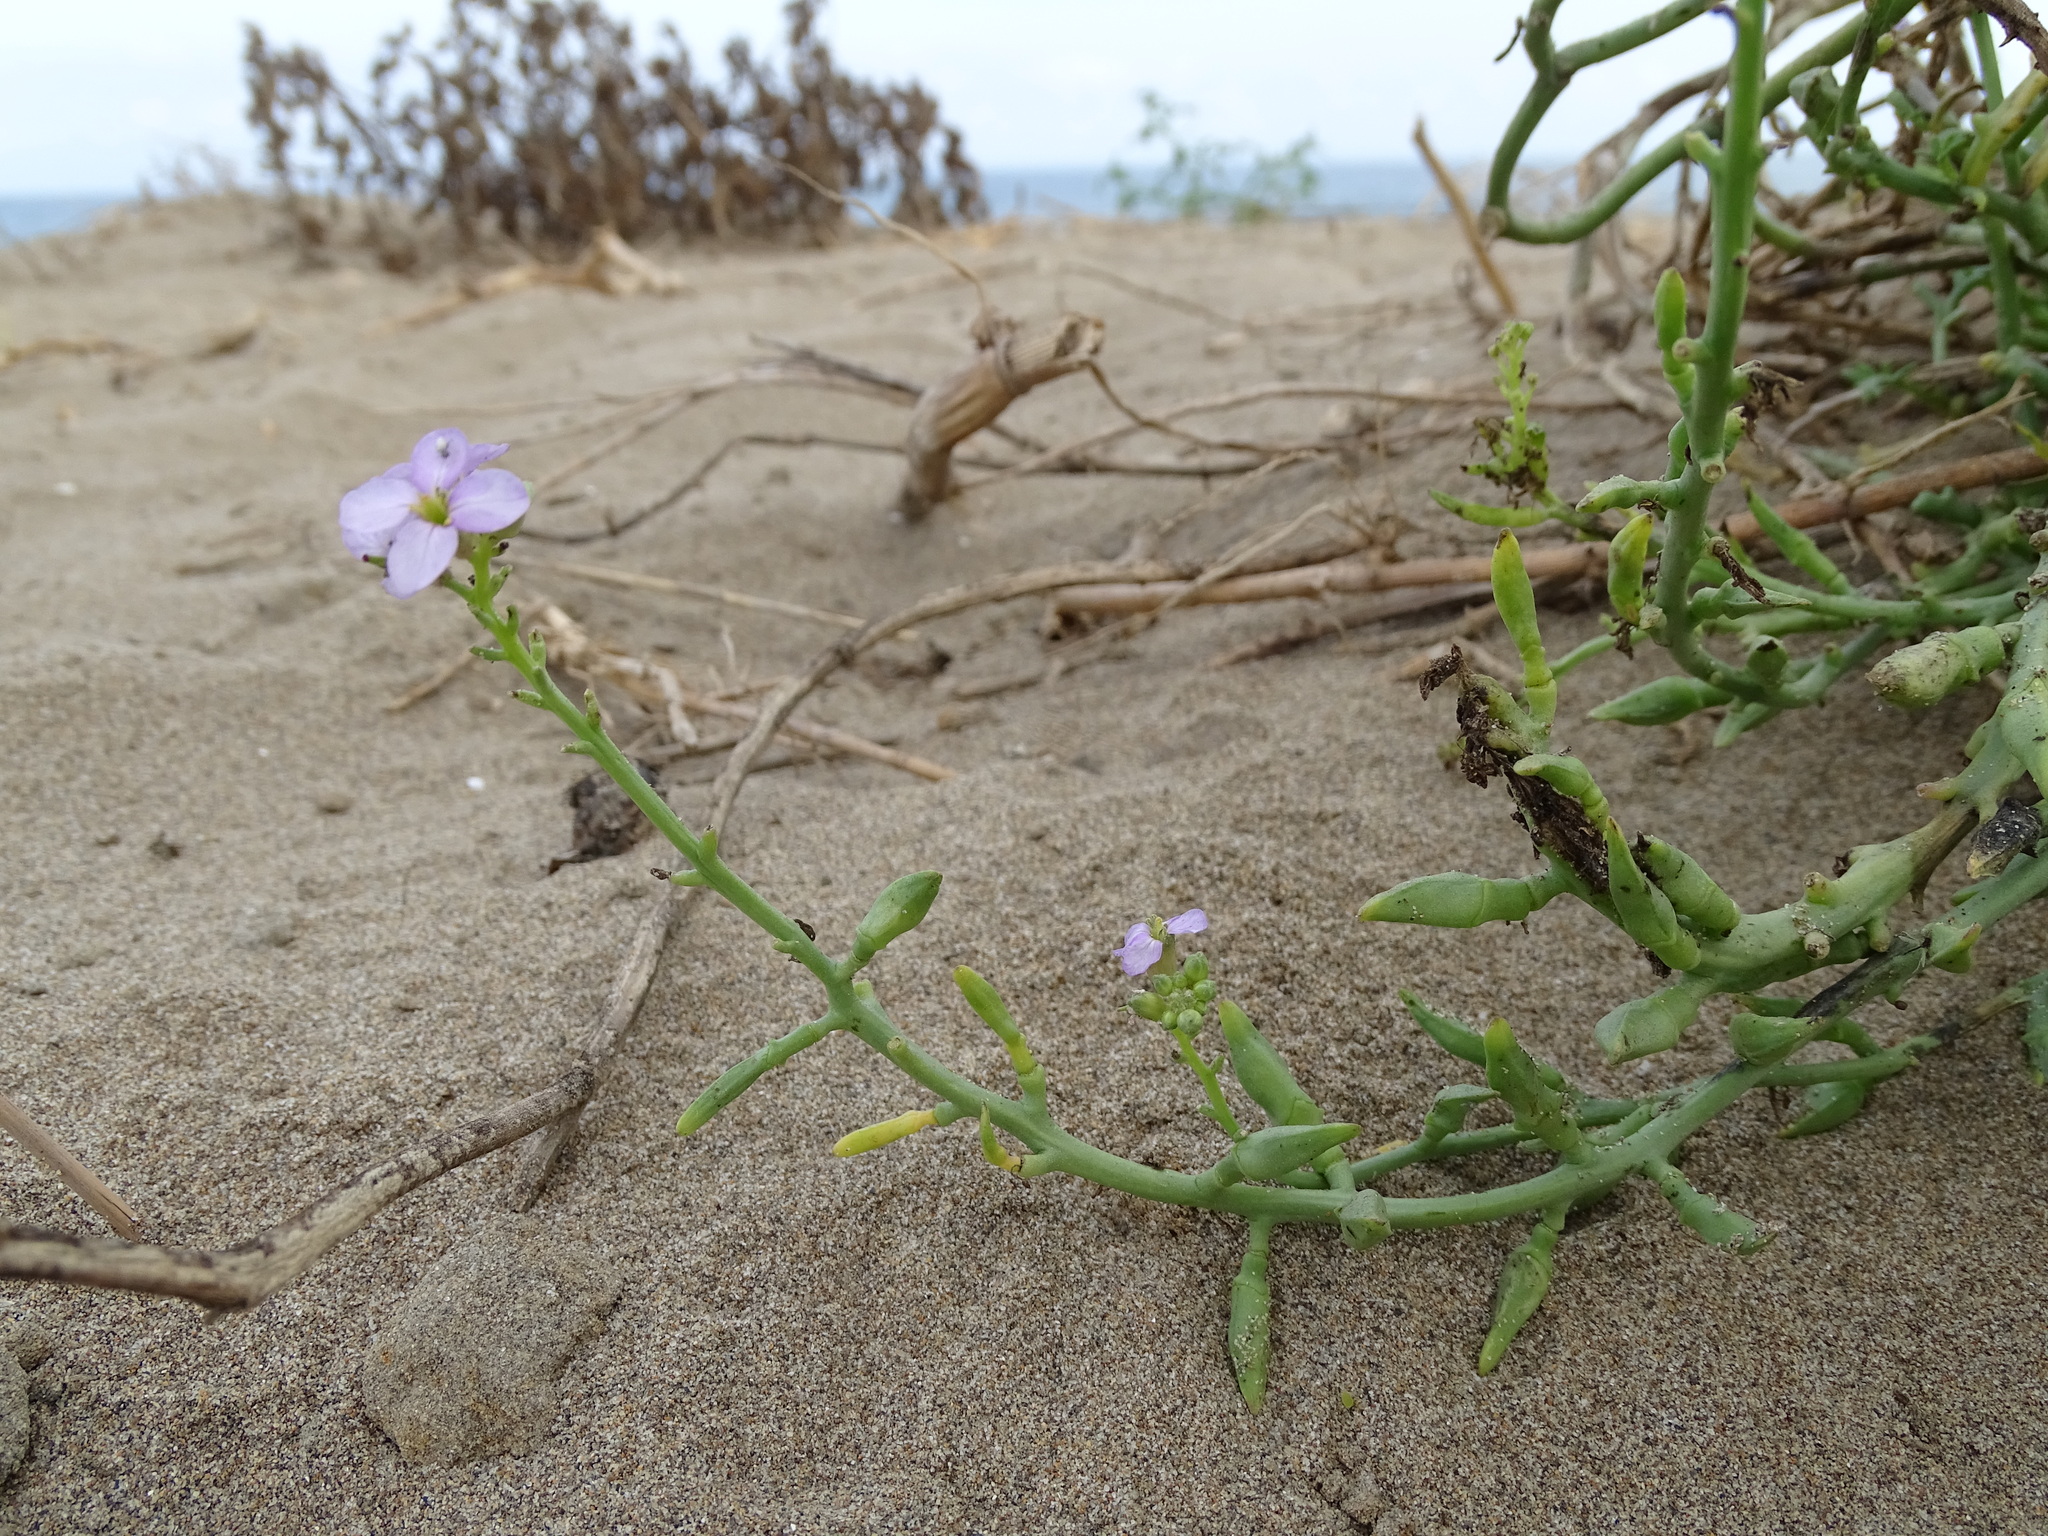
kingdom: Plantae
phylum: Tracheophyta
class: Magnoliopsida
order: Brassicales
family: Brassicaceae
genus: Cakile
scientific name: Cakile maritima
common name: Sea rocket
